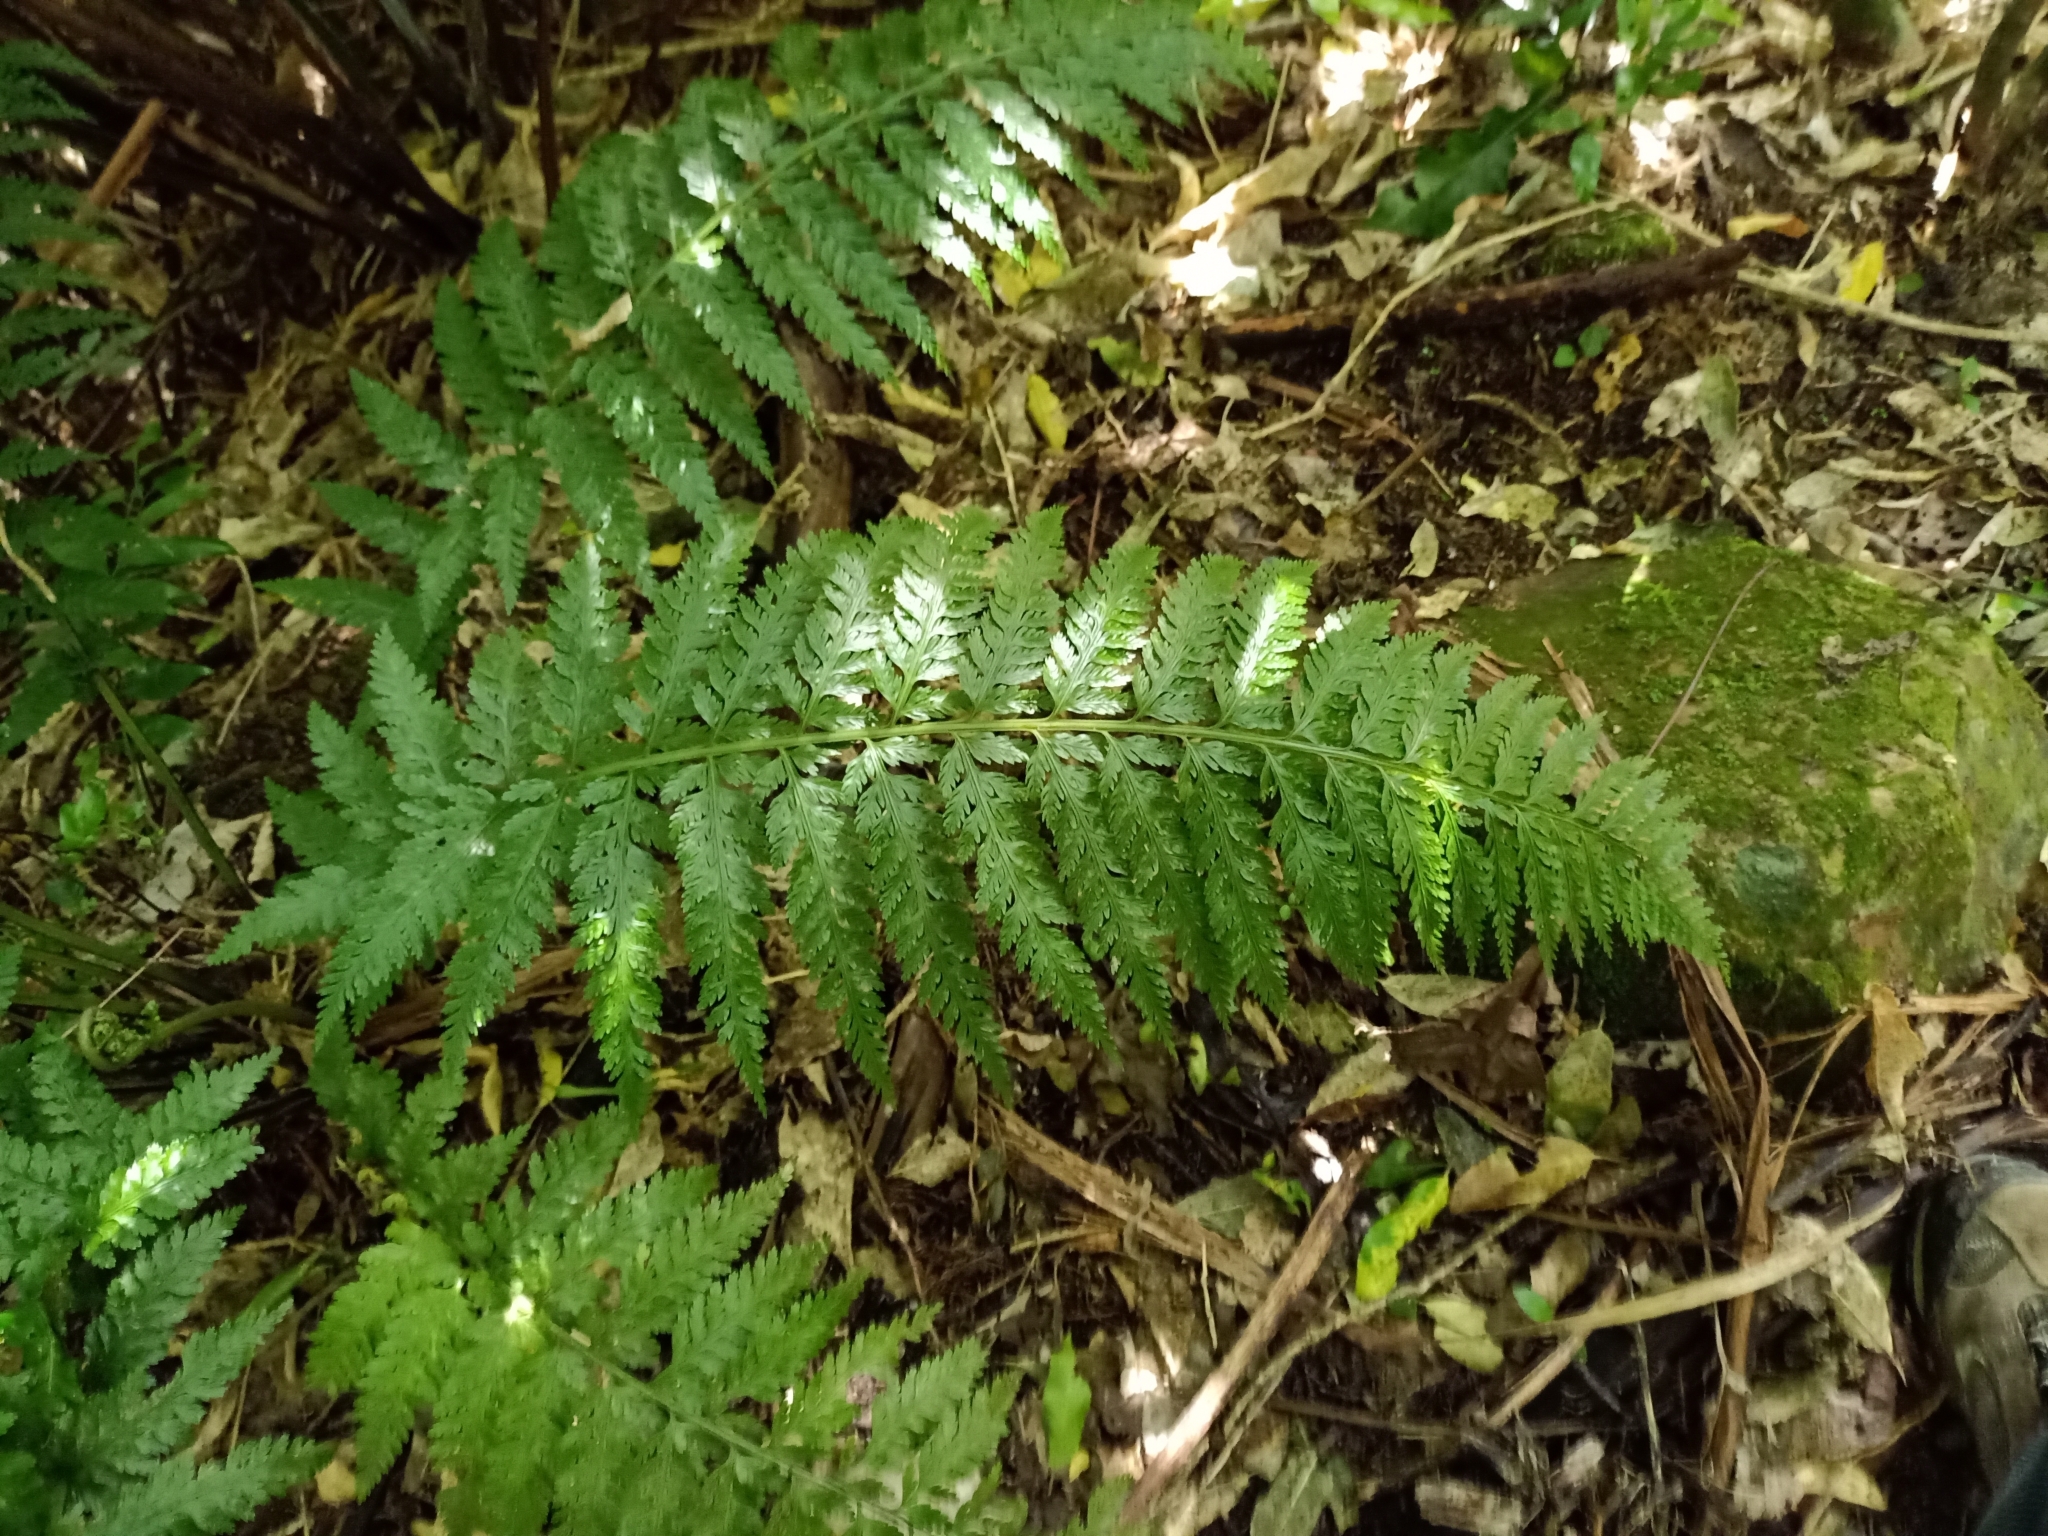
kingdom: Plantae
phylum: Tracheophyta
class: Polypodiopsida
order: Polypodiales
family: Aspleniaceae
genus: Asplenium
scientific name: Asplenium bulbiferum
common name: Mother fern
